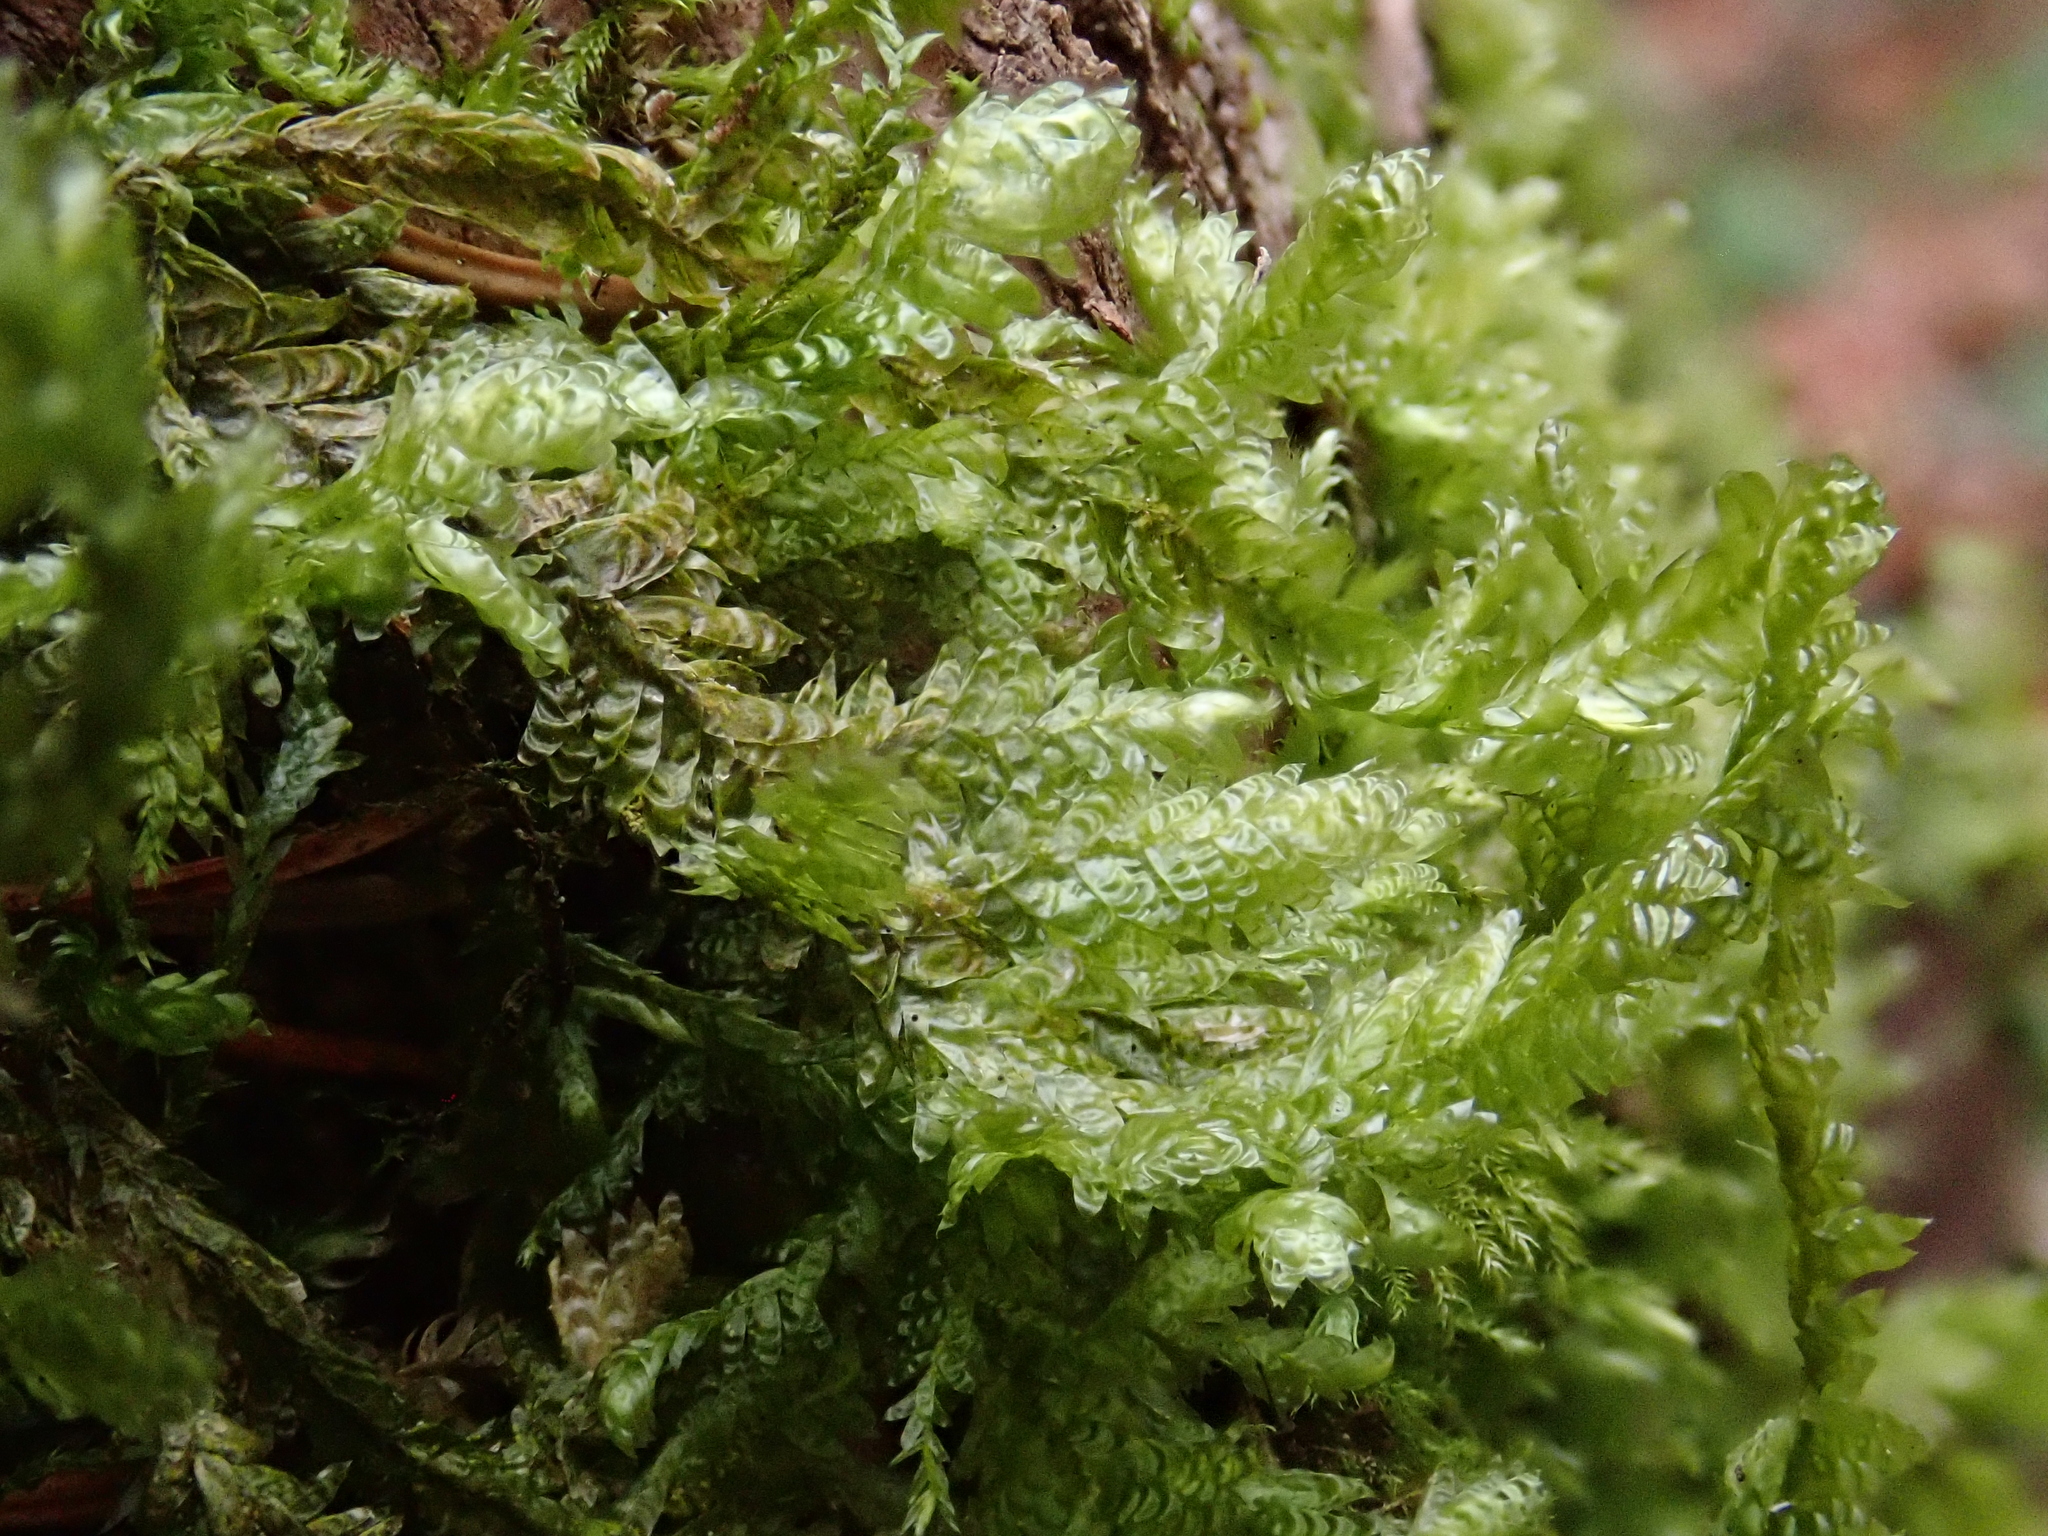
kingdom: Plantae
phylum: Bryophyta
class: Bryopsida
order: Hypnales
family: Neckeraceae
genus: Exsertotheca
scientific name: Exsertotheca crispa
